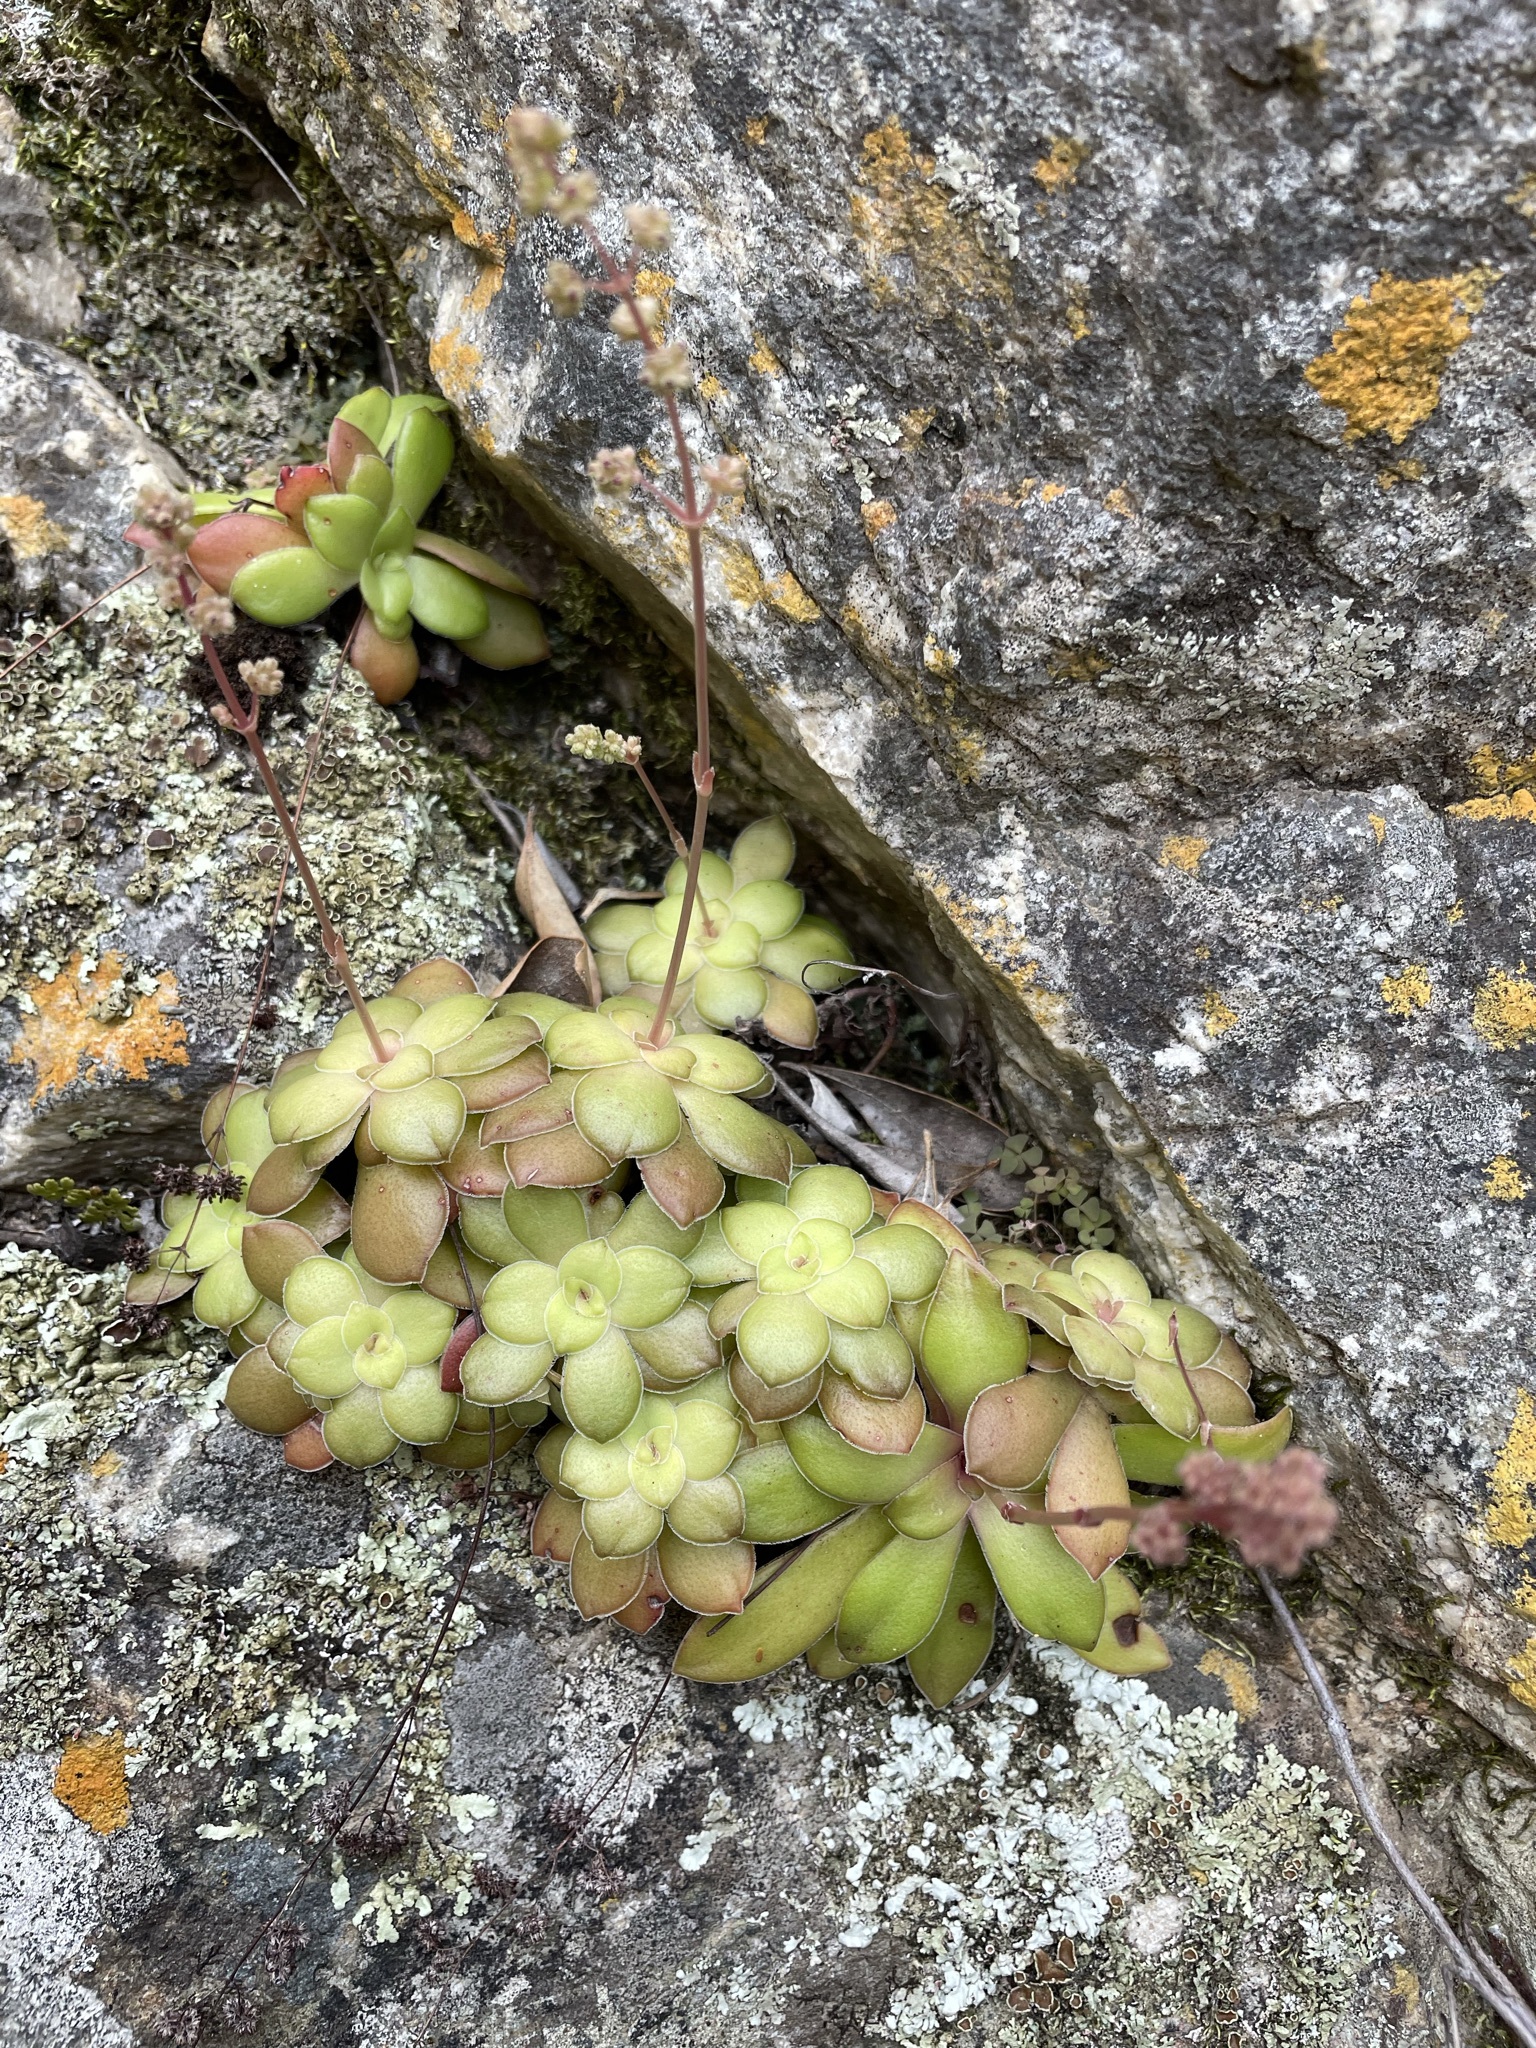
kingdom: Plantae
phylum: Tracheophyta
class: Magnoliopsida
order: Saxifragales
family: Crassulaceae
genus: Crassula
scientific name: Crassula orbicularis
